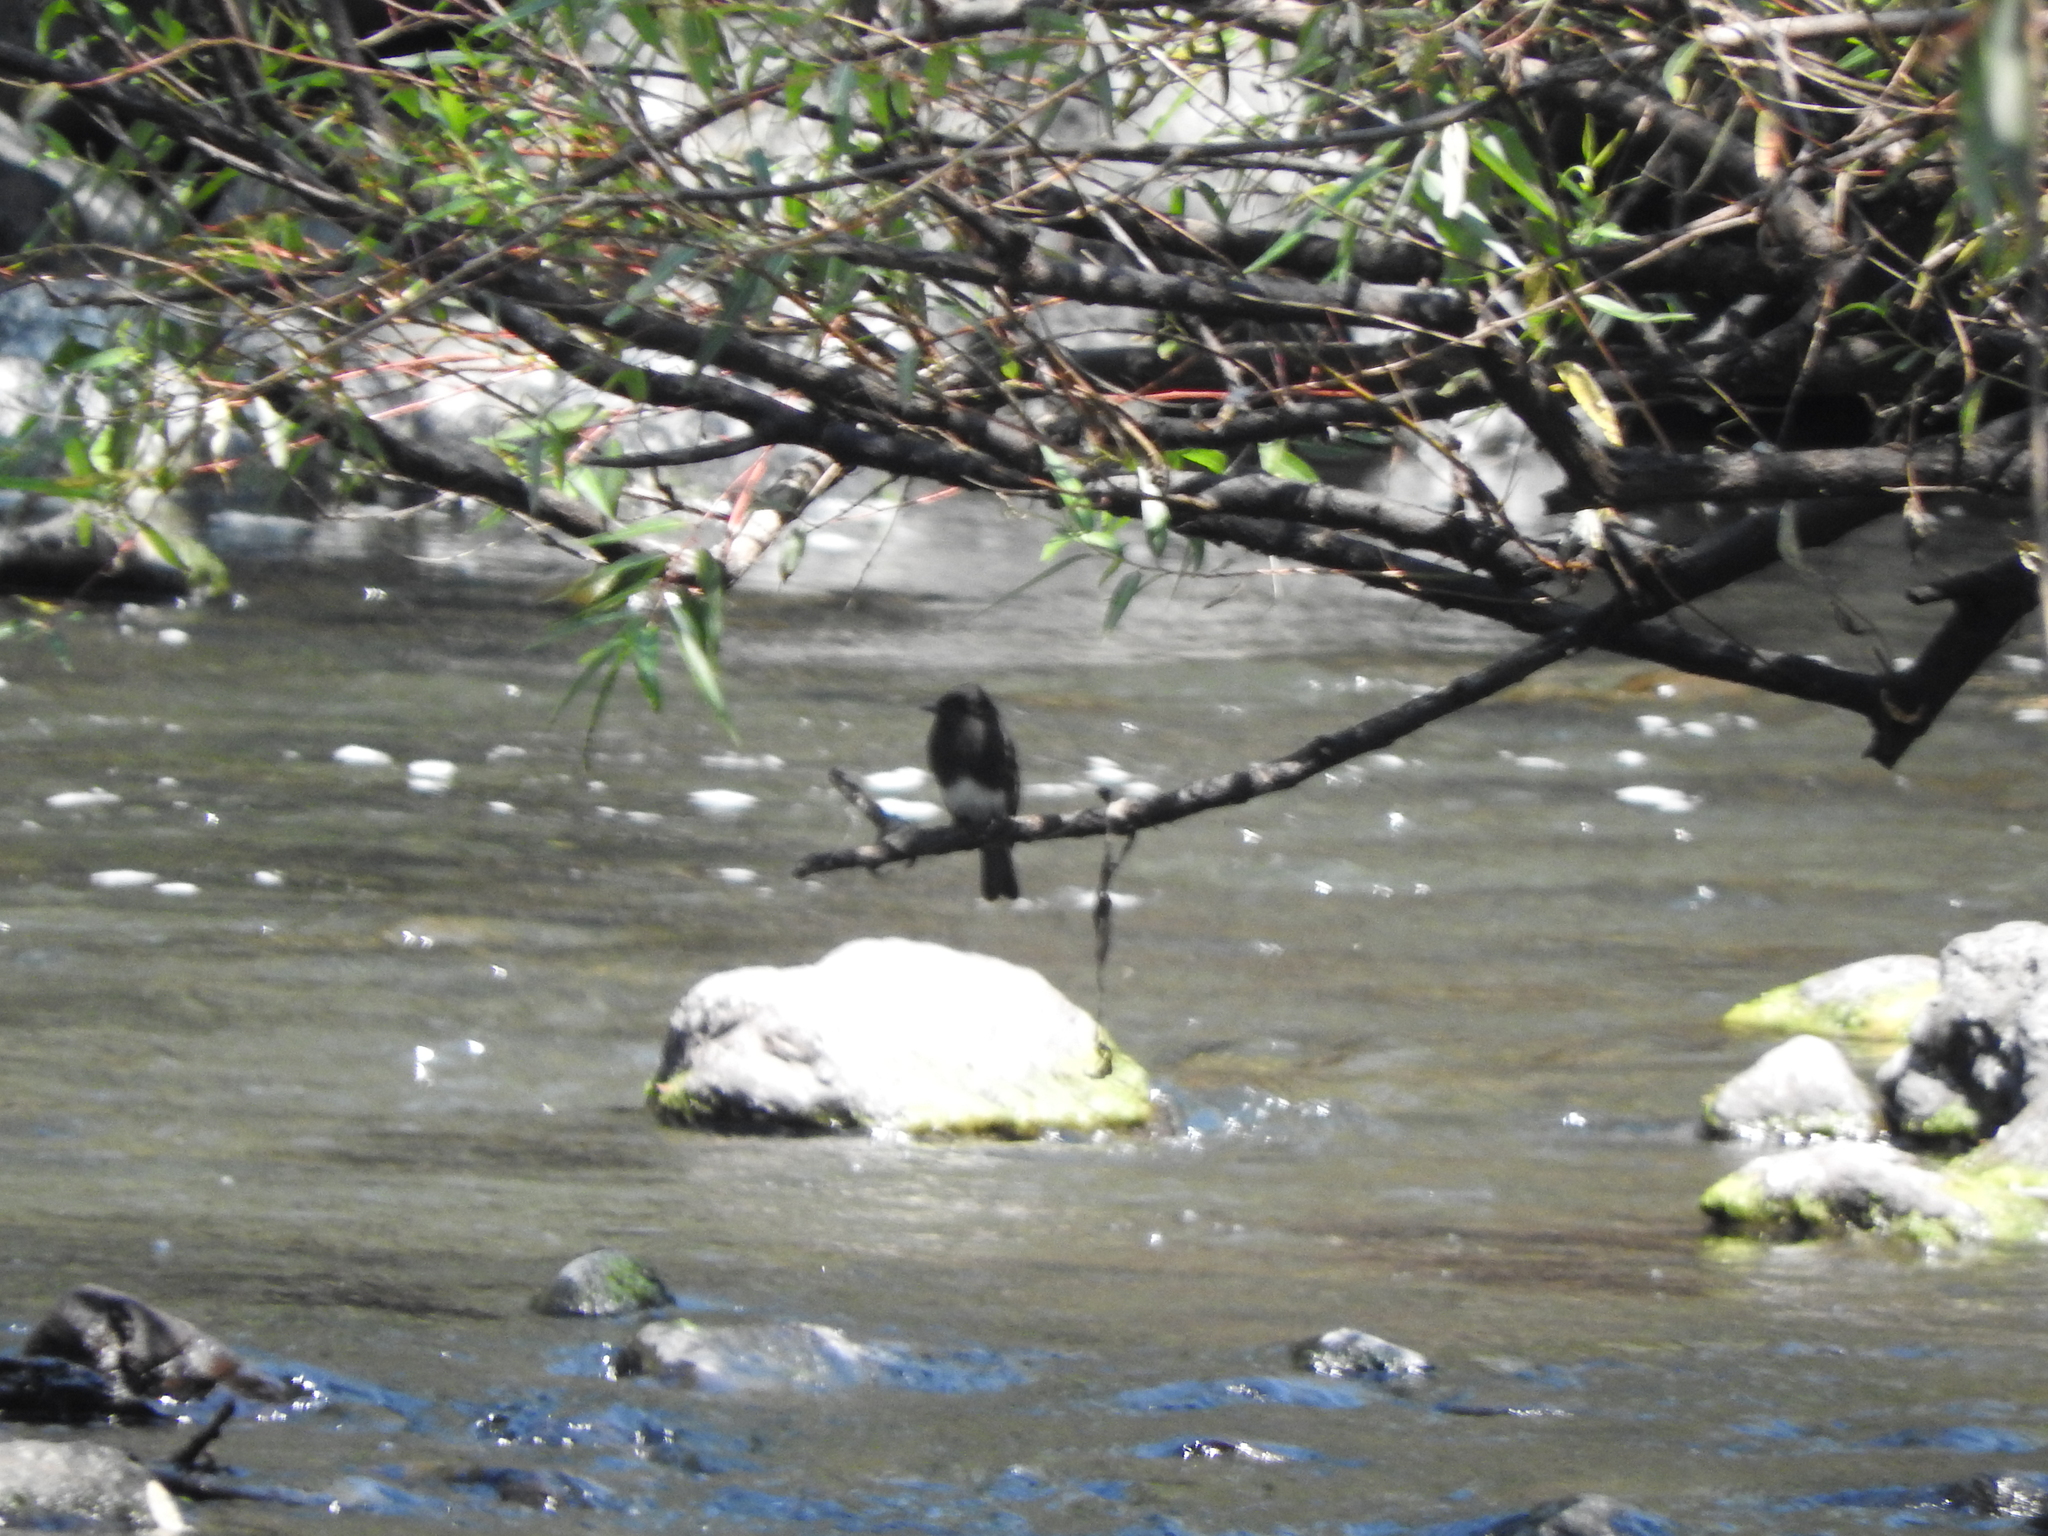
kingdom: Animalia
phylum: Chordata
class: Aves
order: Passeriformes
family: Tyrannidae
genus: Sayornis
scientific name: Sayornis nigricans
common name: Black phoebe
